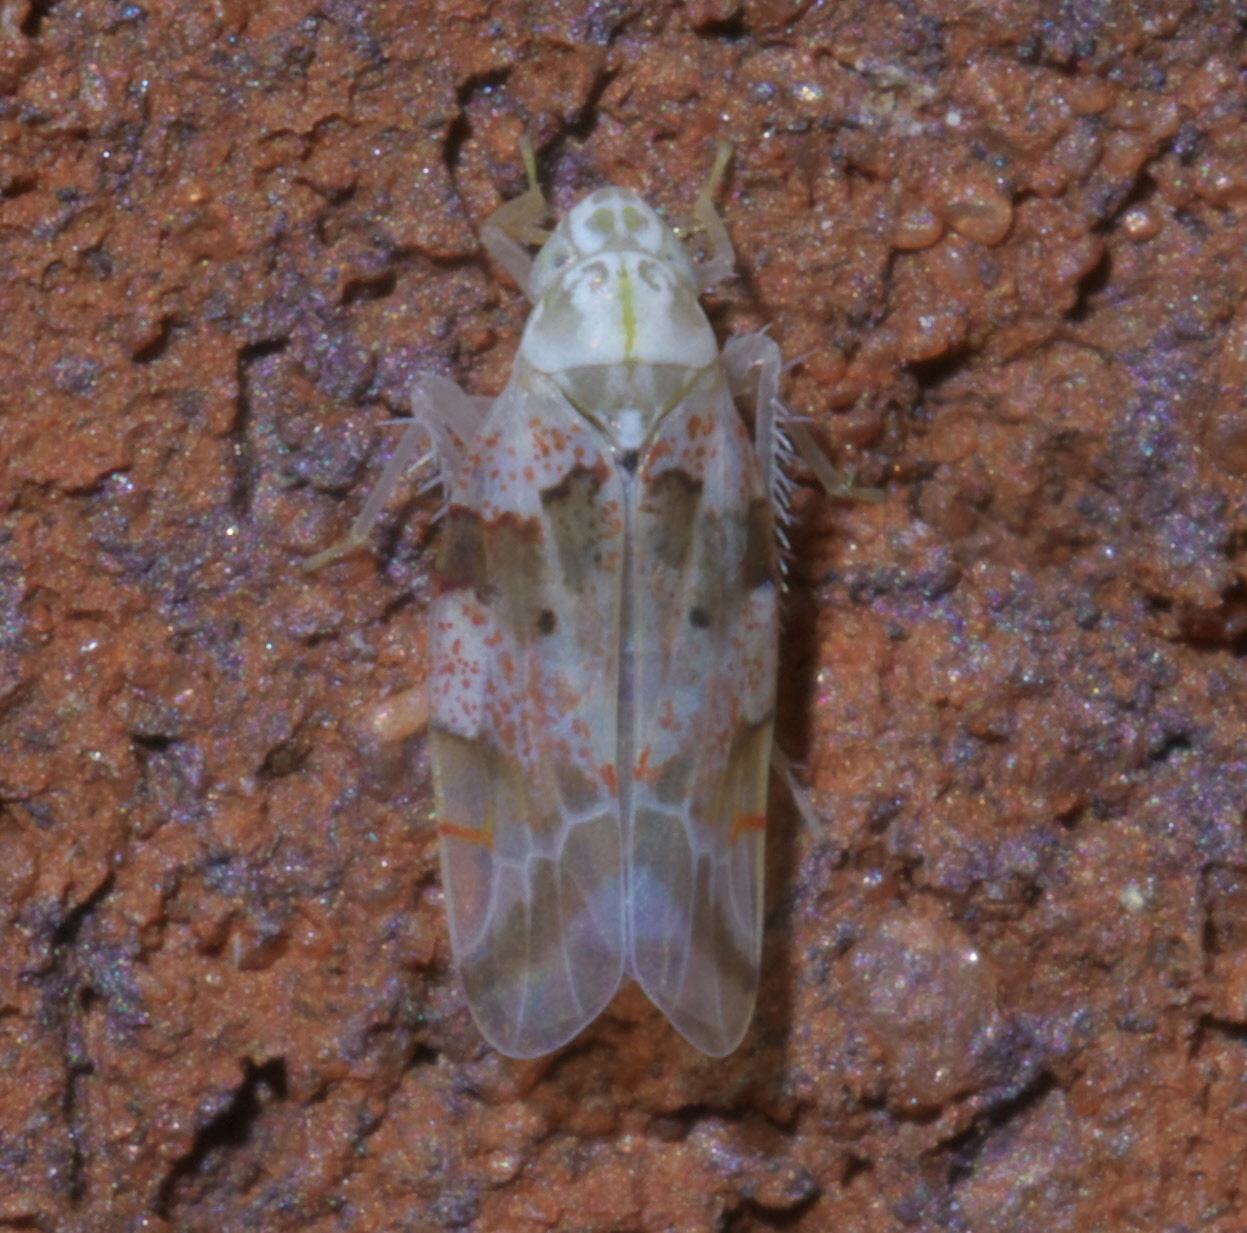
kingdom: Animalia
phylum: Arthropoda
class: Insecta
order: Hemiptera
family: Cicadellidae
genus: Hymetta
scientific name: Hymetta balteata
